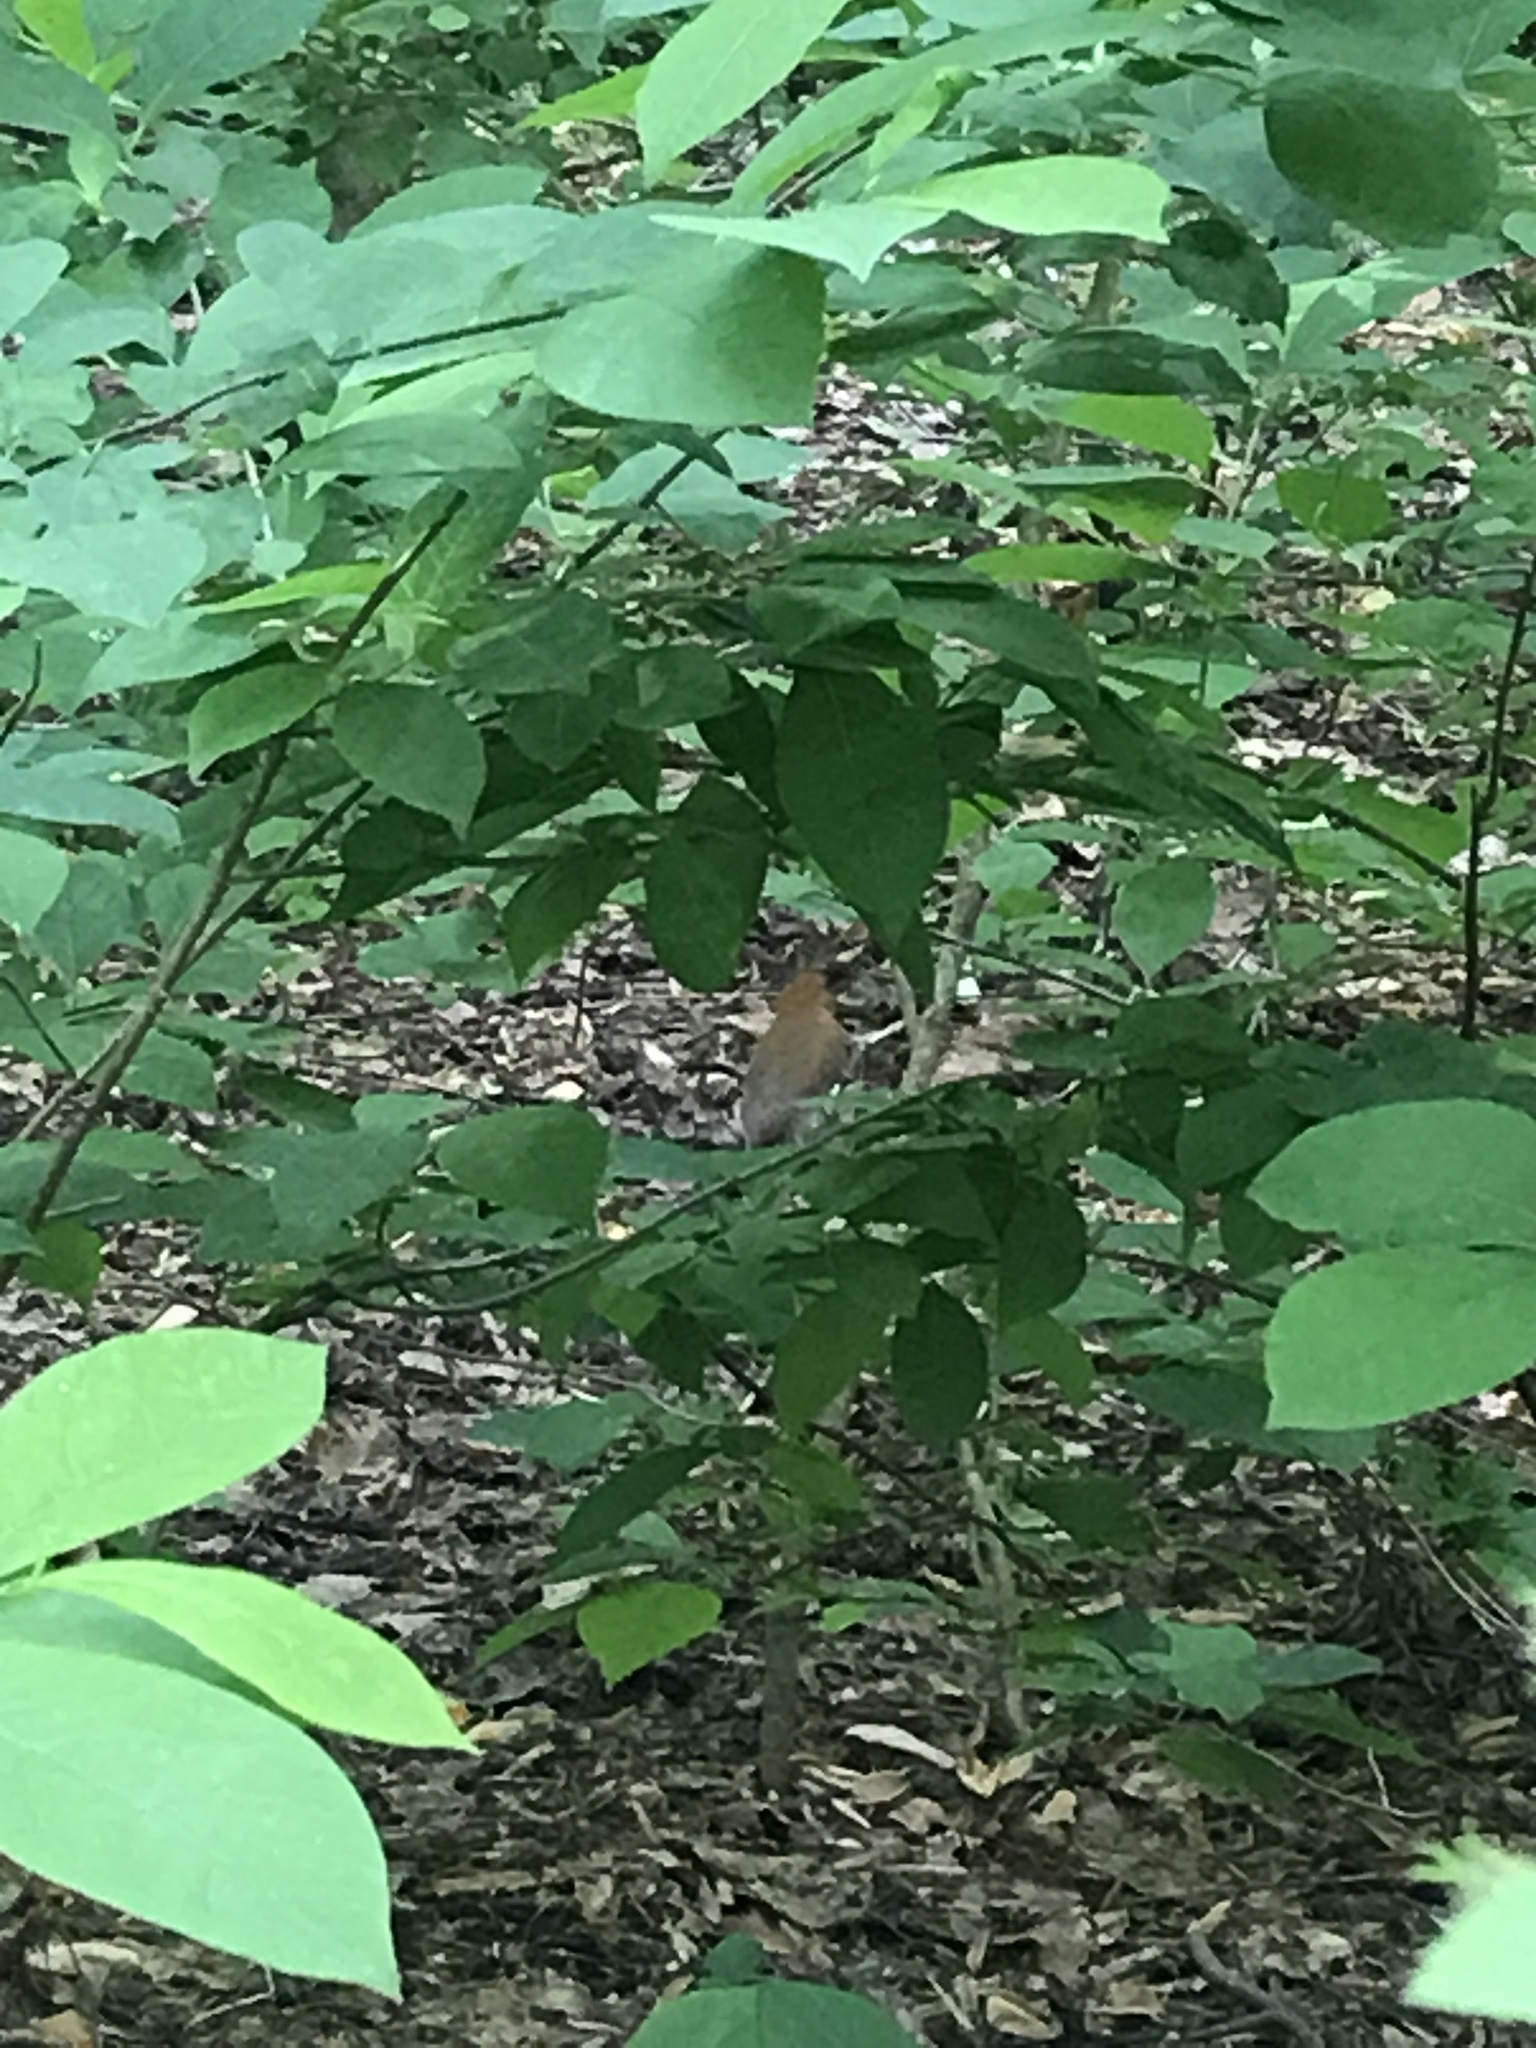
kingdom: Animalia
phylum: Chordata
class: Aves
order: Passeriformes
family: Turdidae
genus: Hylocichla
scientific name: Hylocichla mustelina
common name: Wood thrush
